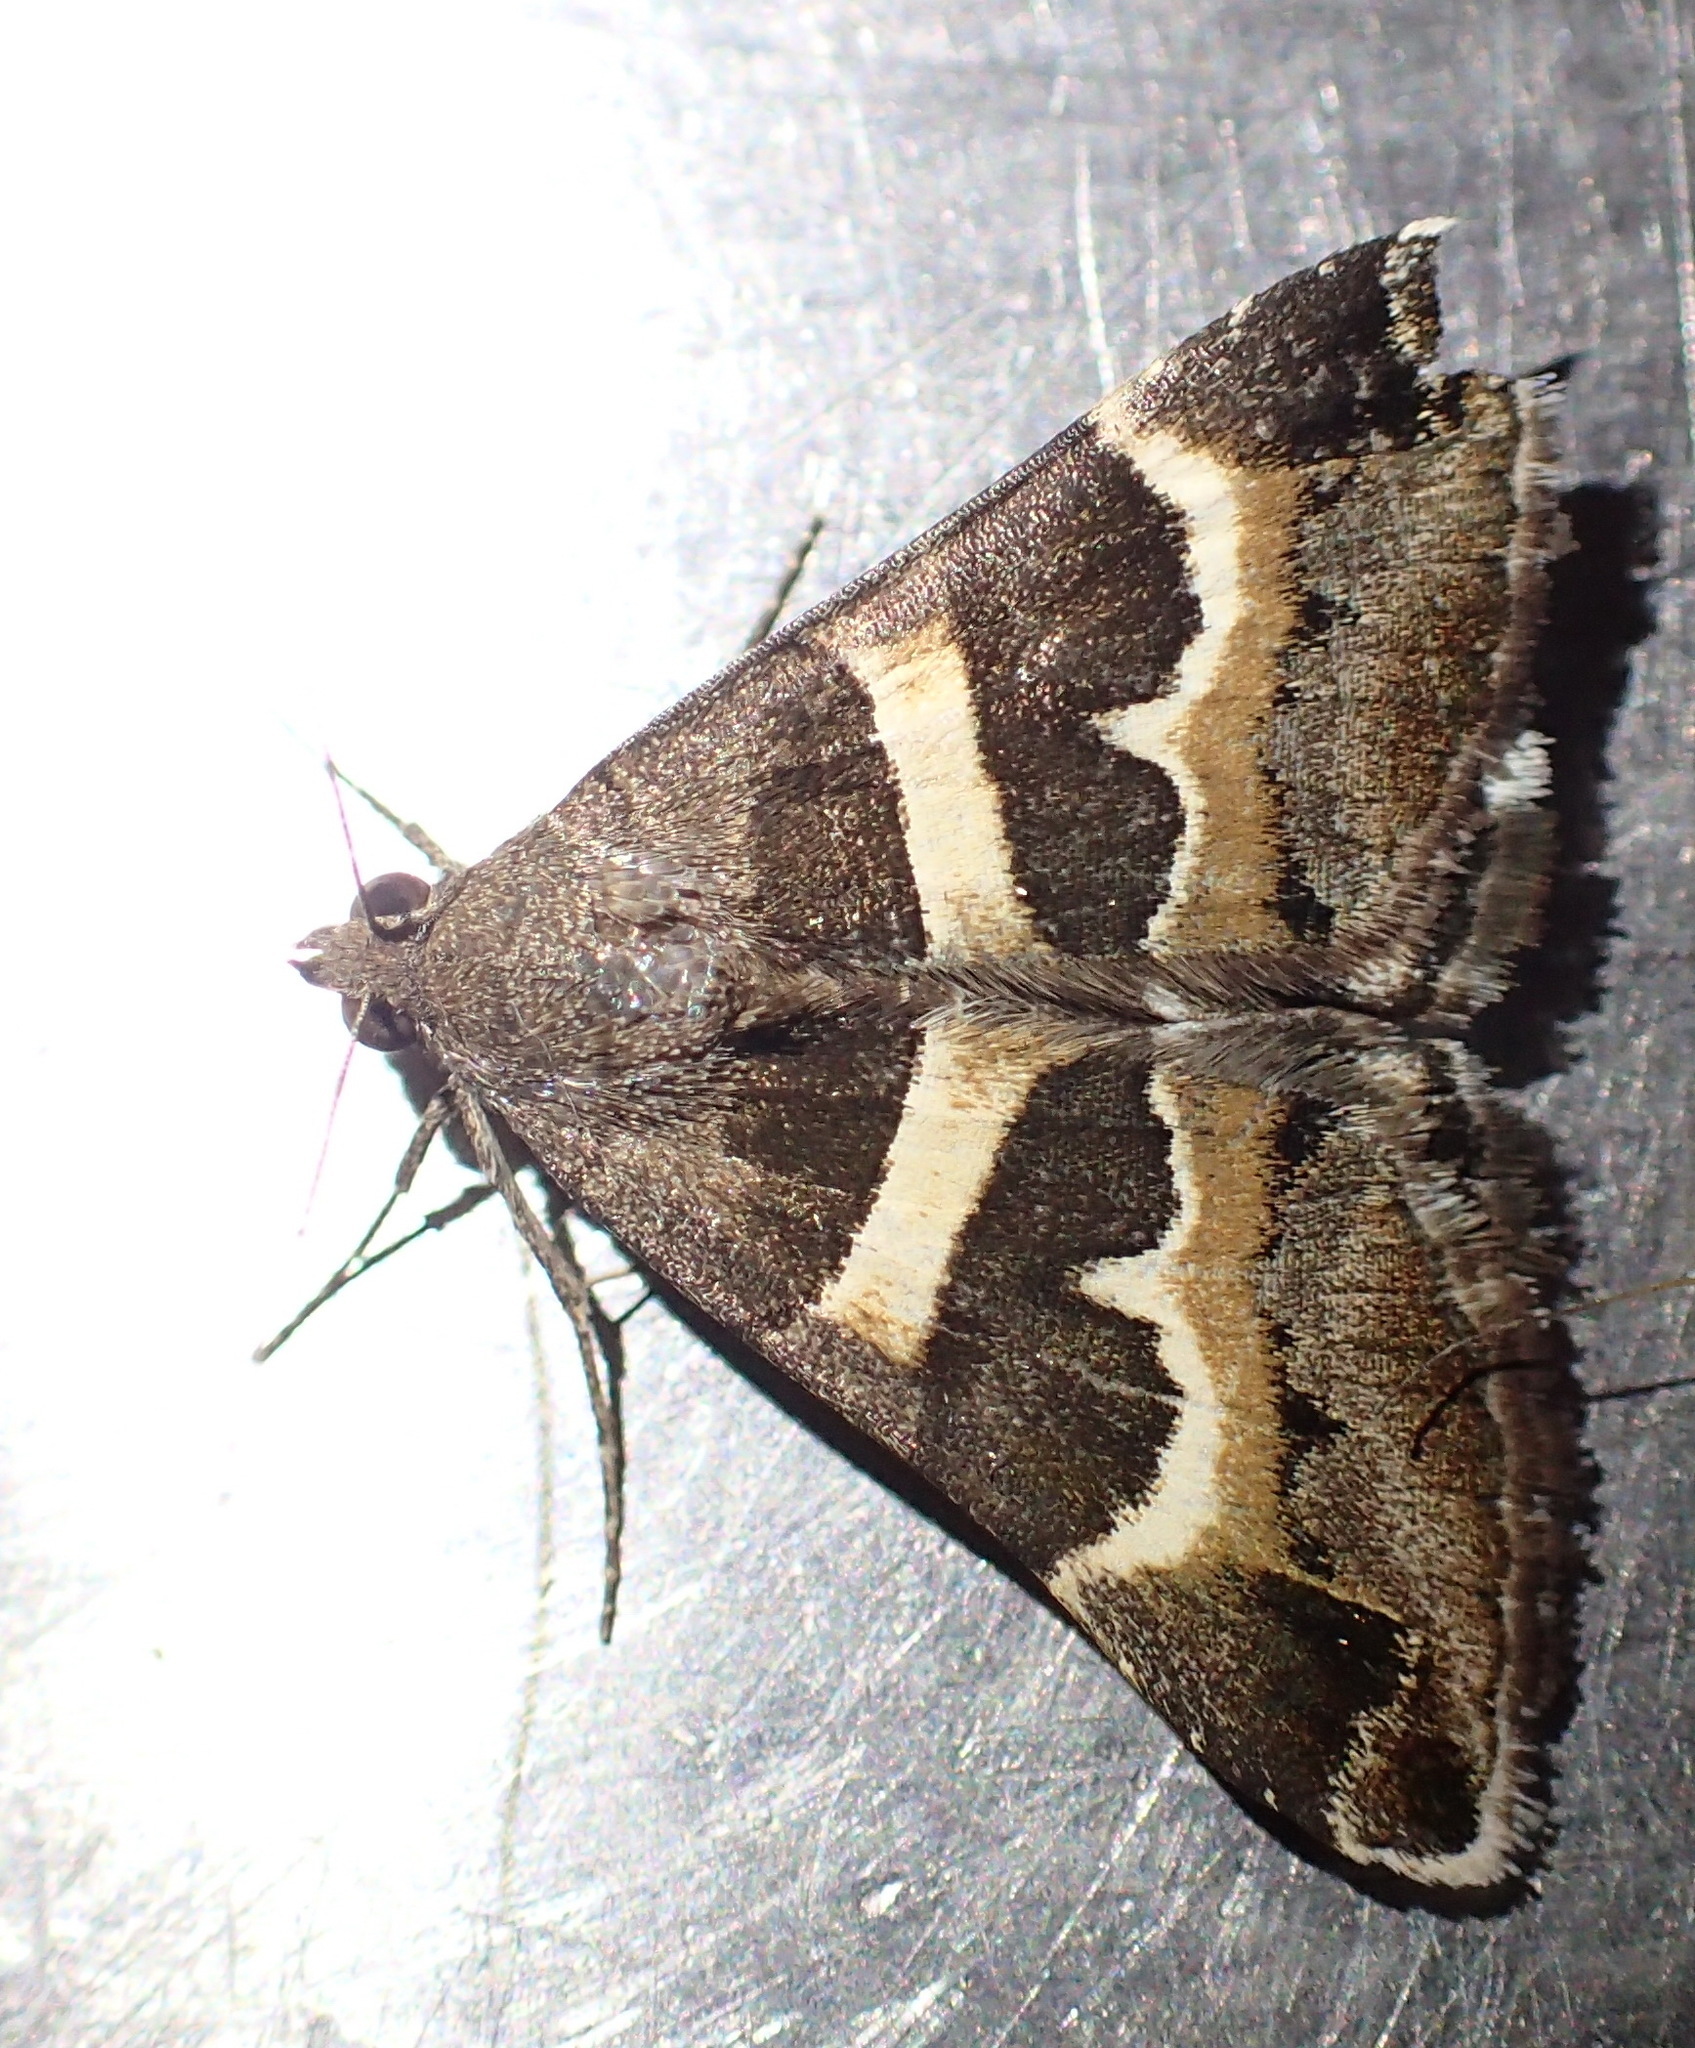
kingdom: Animalia
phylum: Arthropoda
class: Insecta
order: Lepidoptera
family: Erebidae
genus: Grammodes
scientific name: Grammodes stolida
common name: Geometrician
